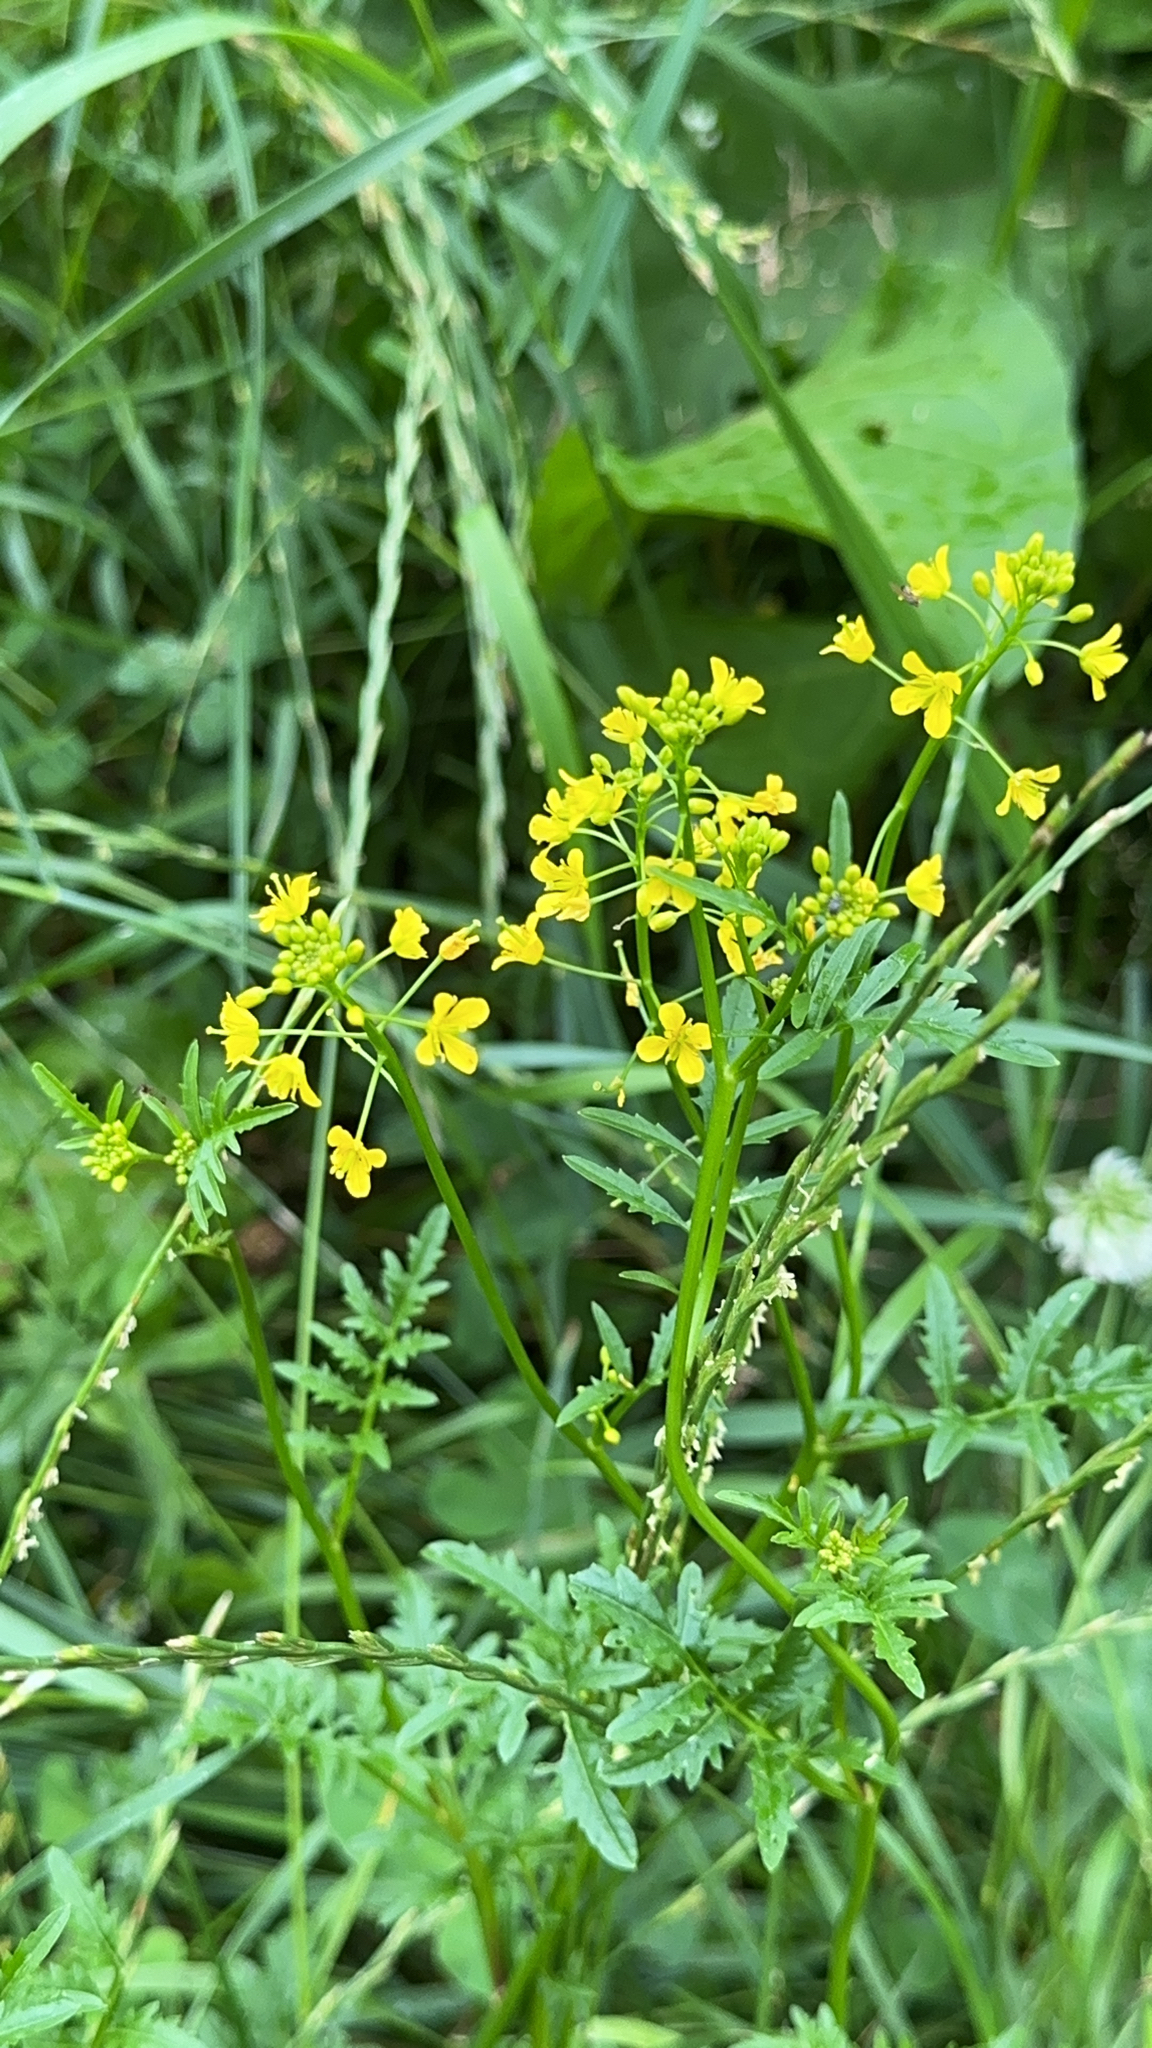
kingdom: Plantae
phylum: Tracheophyta
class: Magnoliopsida
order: Brassicales
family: Brassicaceae
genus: Rorippa
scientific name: Rorippa sylvestris
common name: Creeping yellowcress
